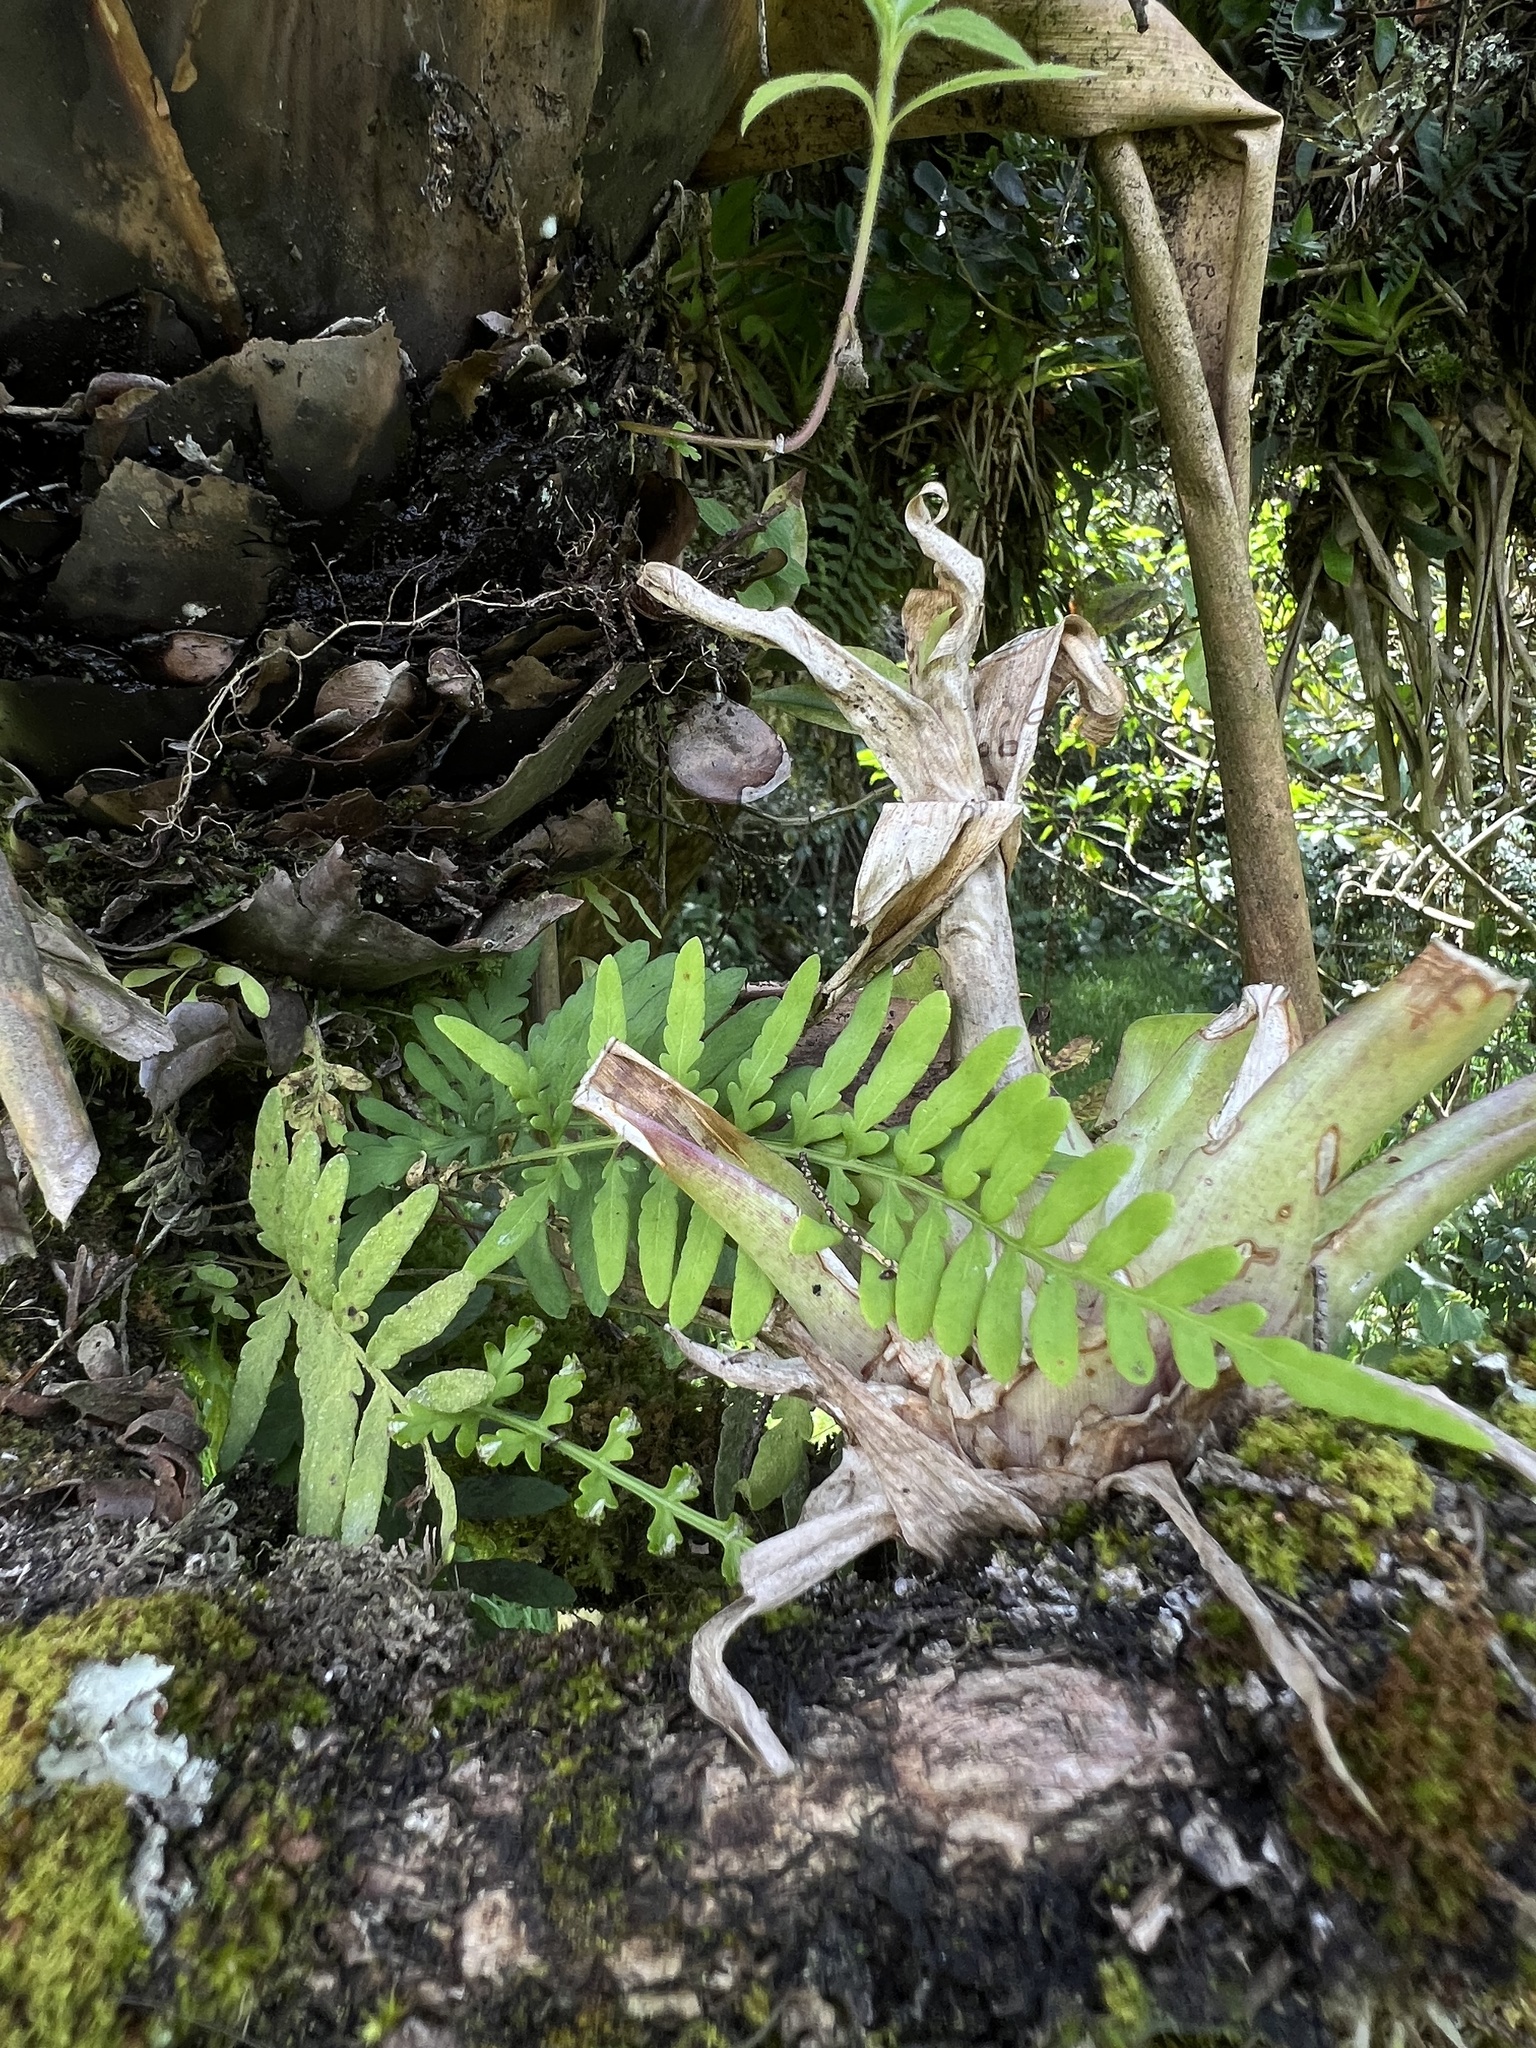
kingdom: Plantae
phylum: Tracheophyta
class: Polypodiopsida
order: Polypodiales
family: Polypodiaceae
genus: Pleopeltis
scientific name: Pleopeltis murora
